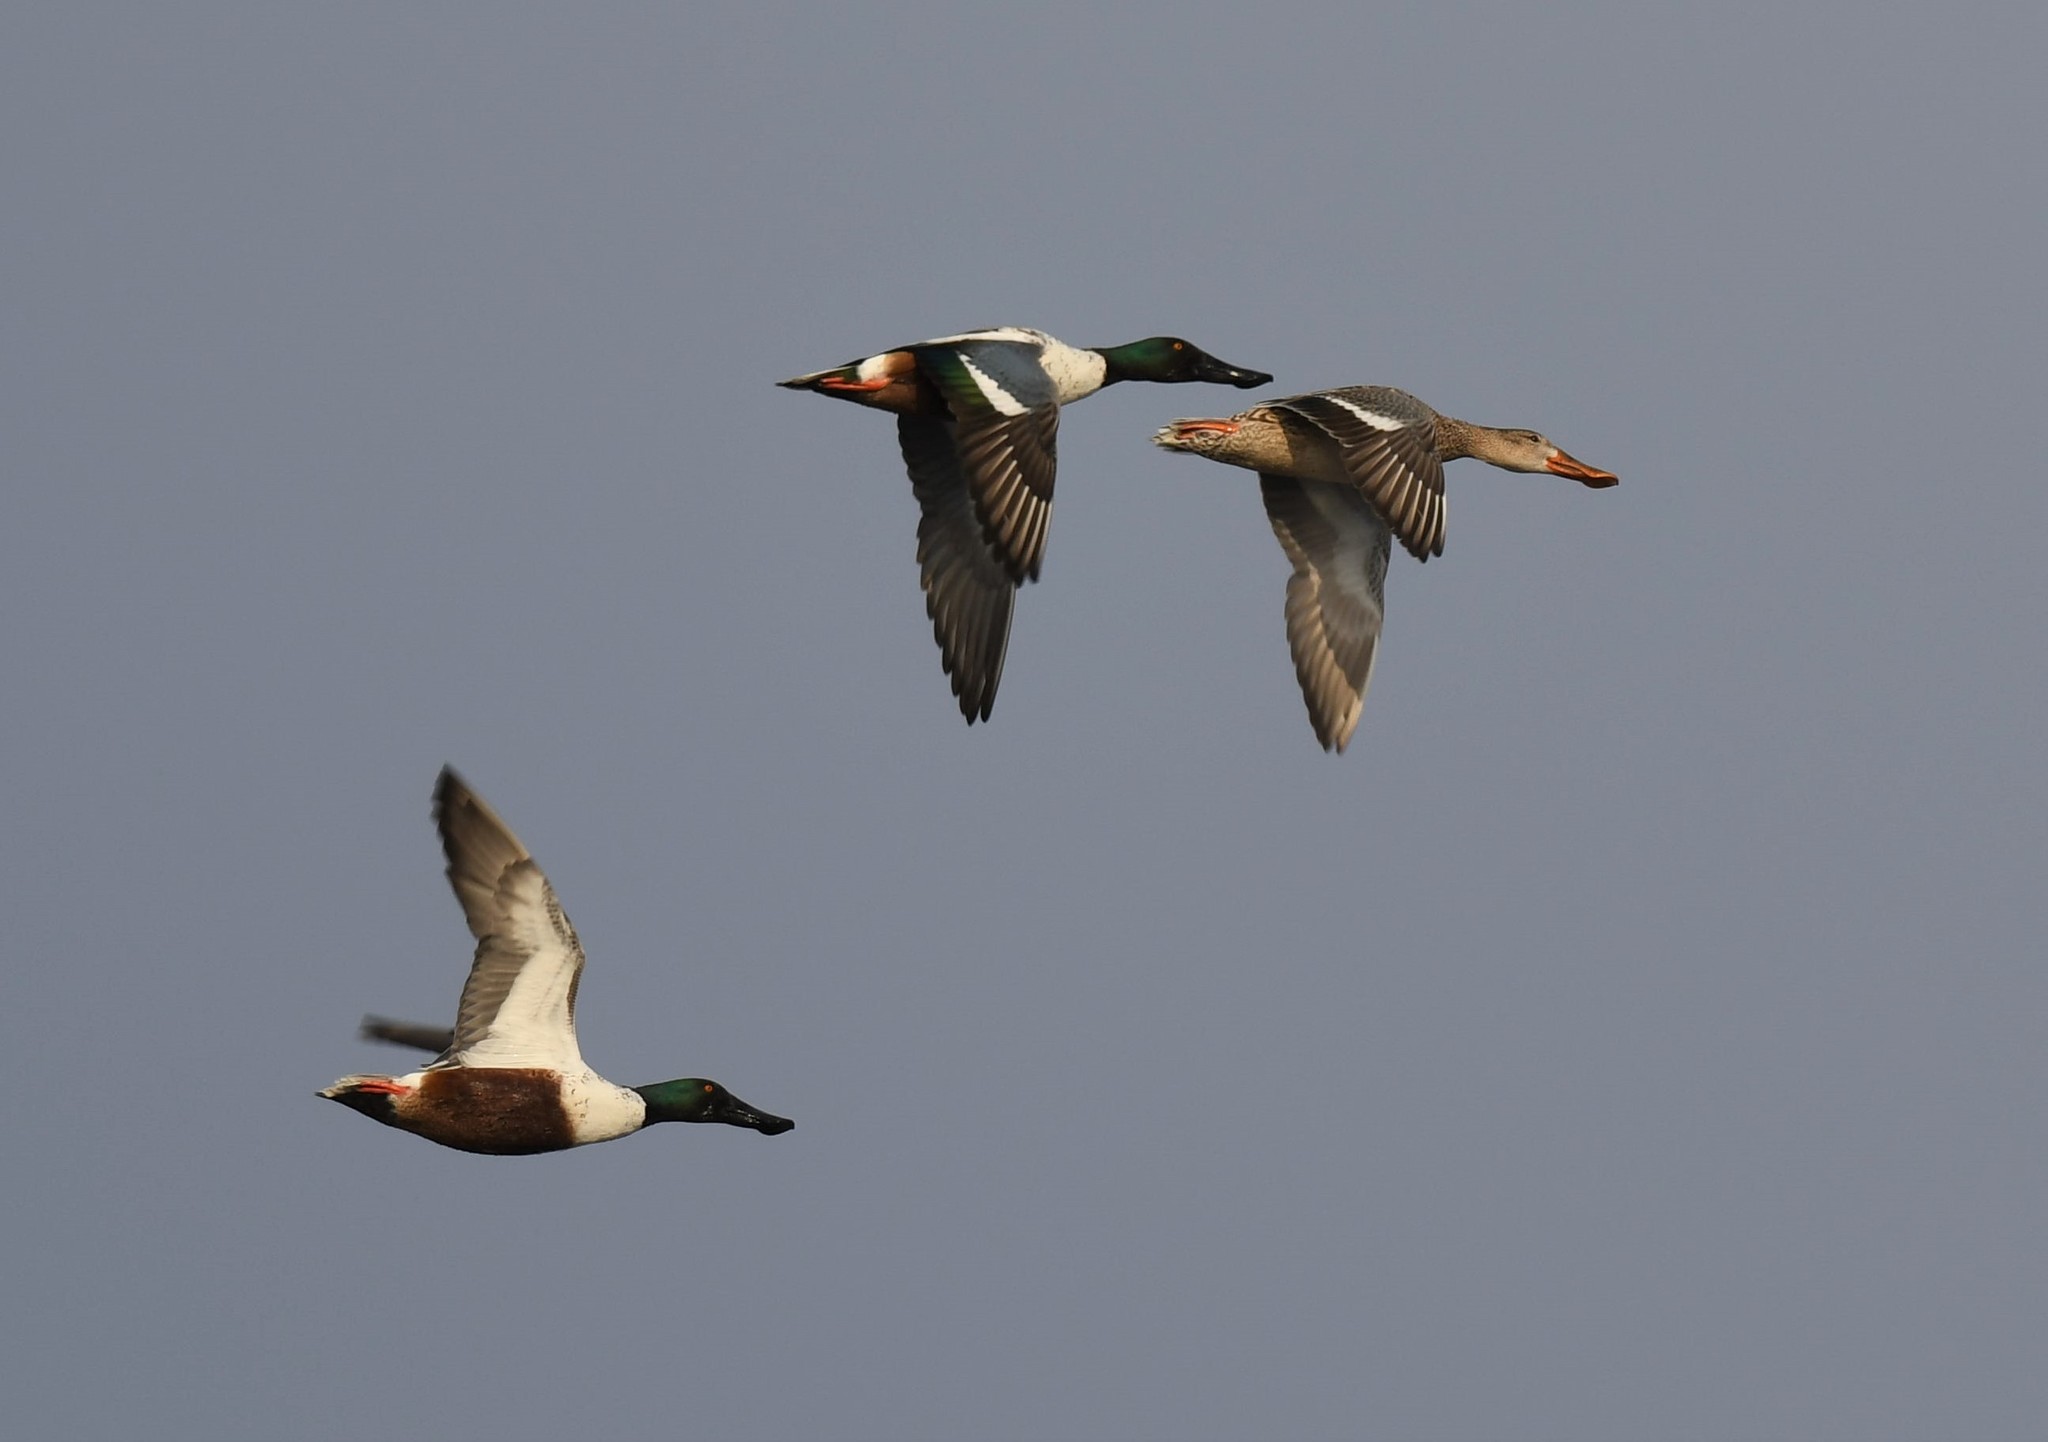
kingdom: Animalia
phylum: Chordata
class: Aves
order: Anseriformes
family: Anatidae
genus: Spatula
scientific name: Spatula clypeata
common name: Northern shoveler
